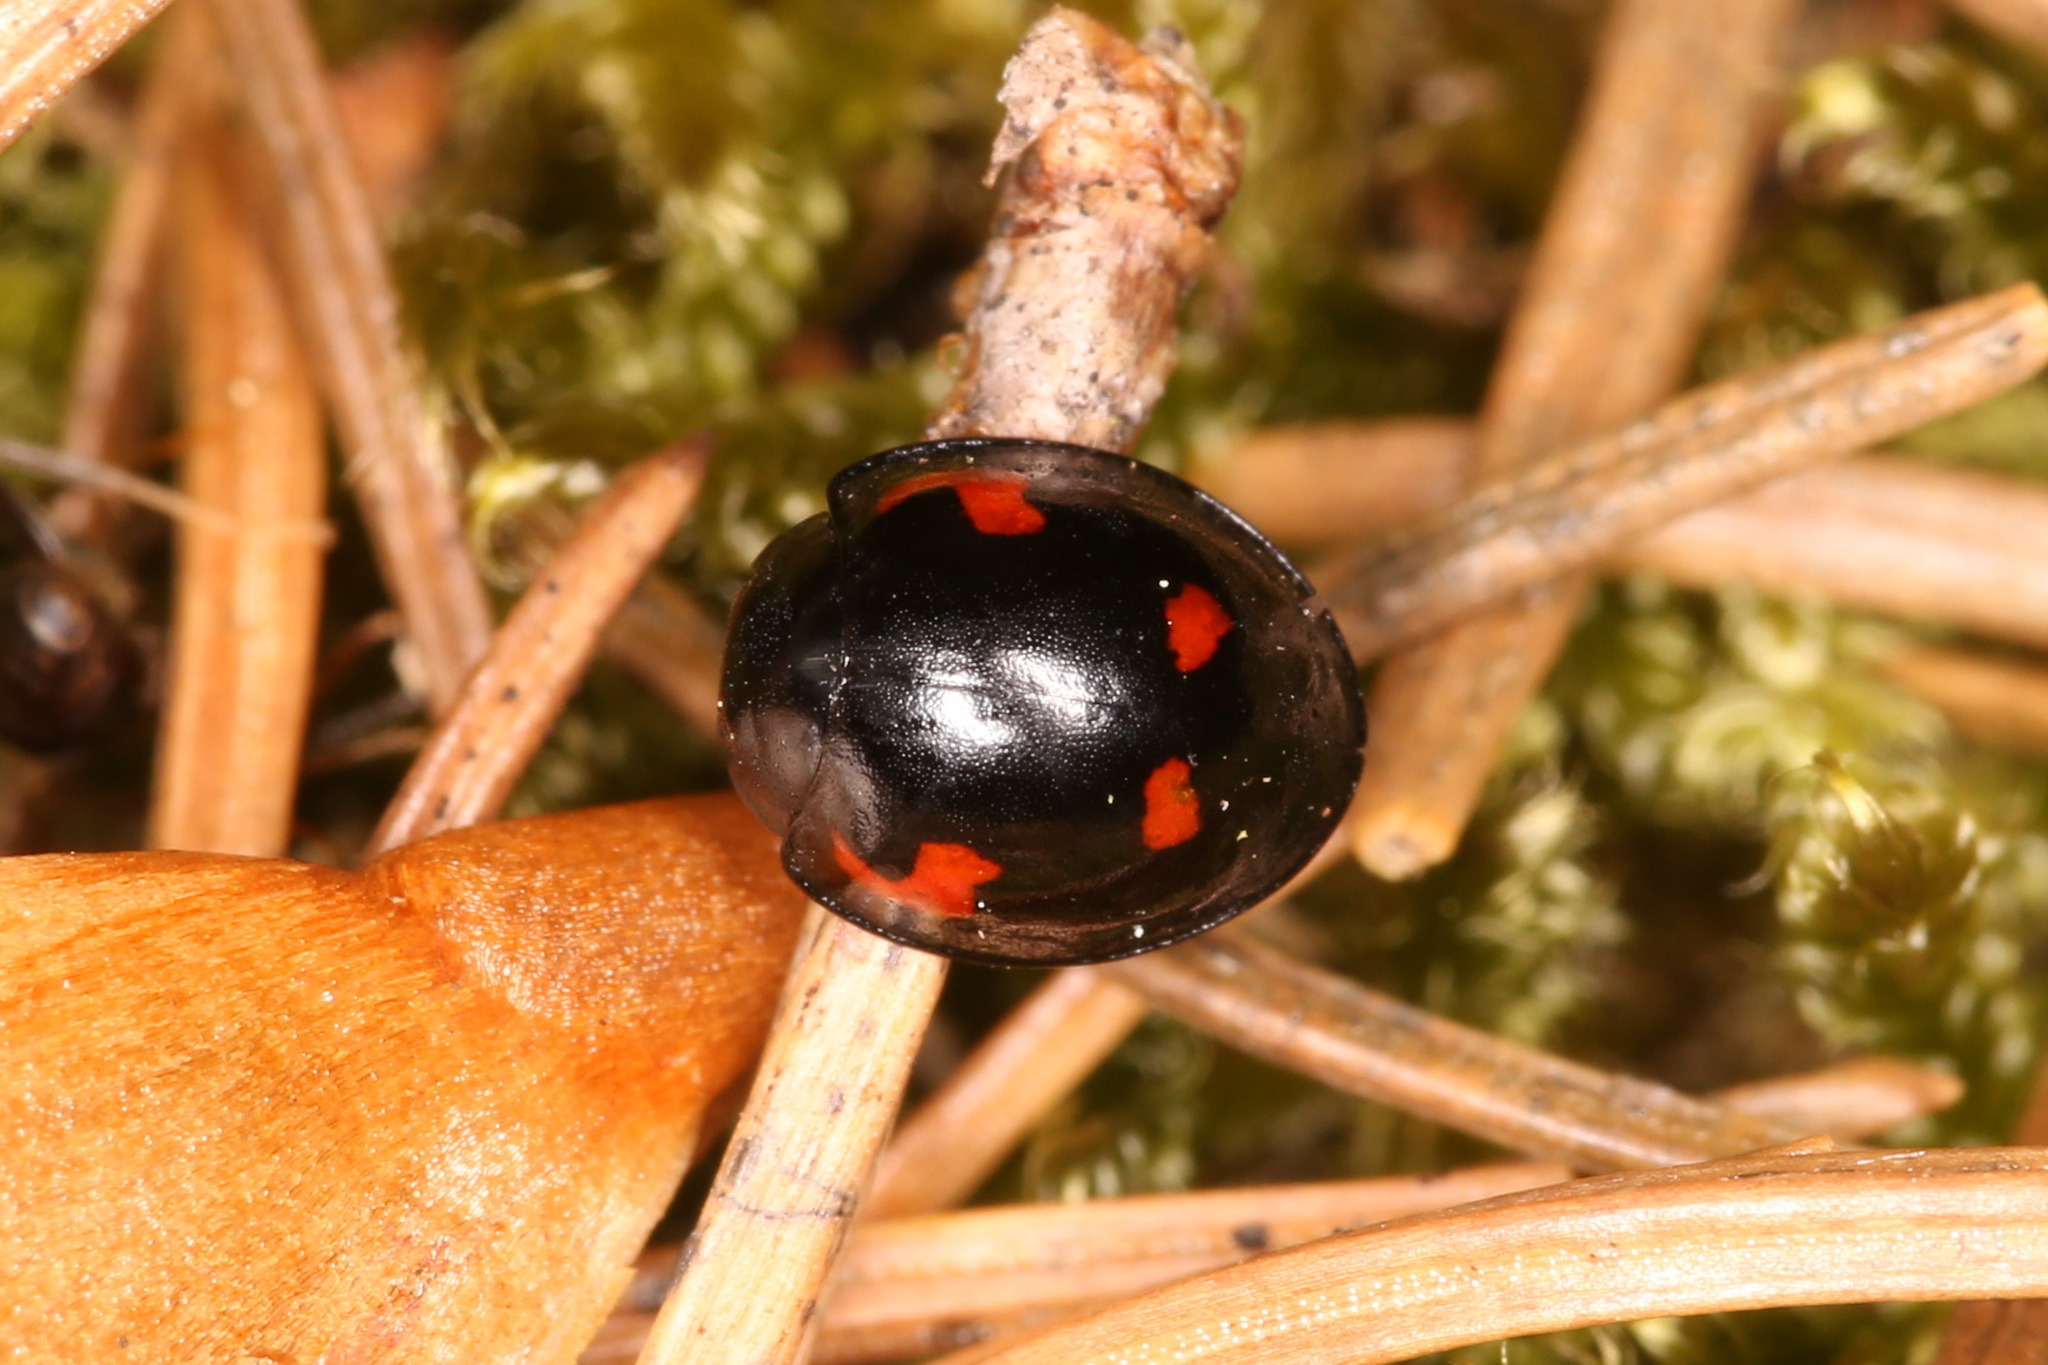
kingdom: Animalia
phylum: Arthropoda
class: Insecta
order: Coleoptera
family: Coccinellidae
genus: Brumus
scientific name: Brumus quadripustulatus
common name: Ladybird beetle
